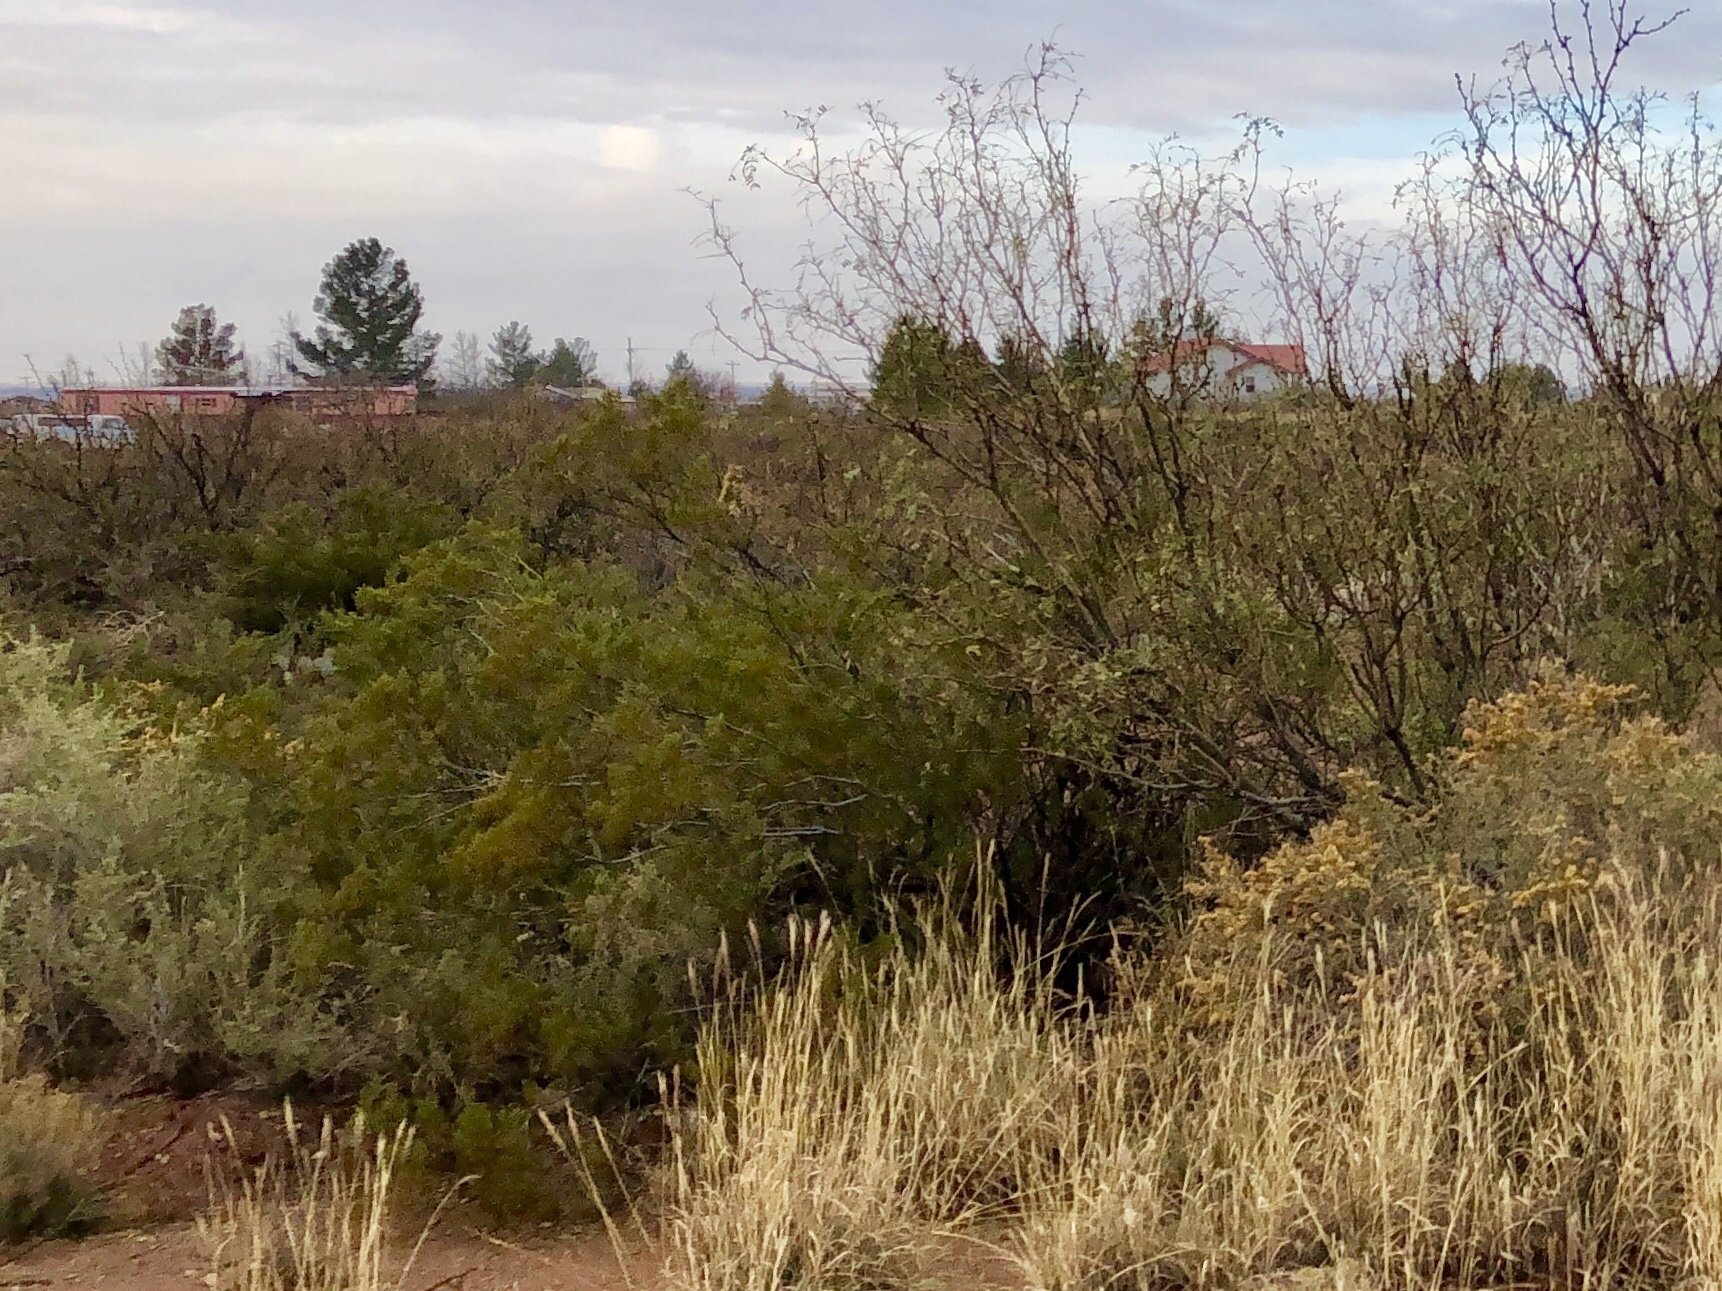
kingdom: Plantae
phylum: Tracheophyta
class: Magnoliopsida
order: Zygophyllales
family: Zygophyllaceae
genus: Larrea
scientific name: Larrea tridentata
